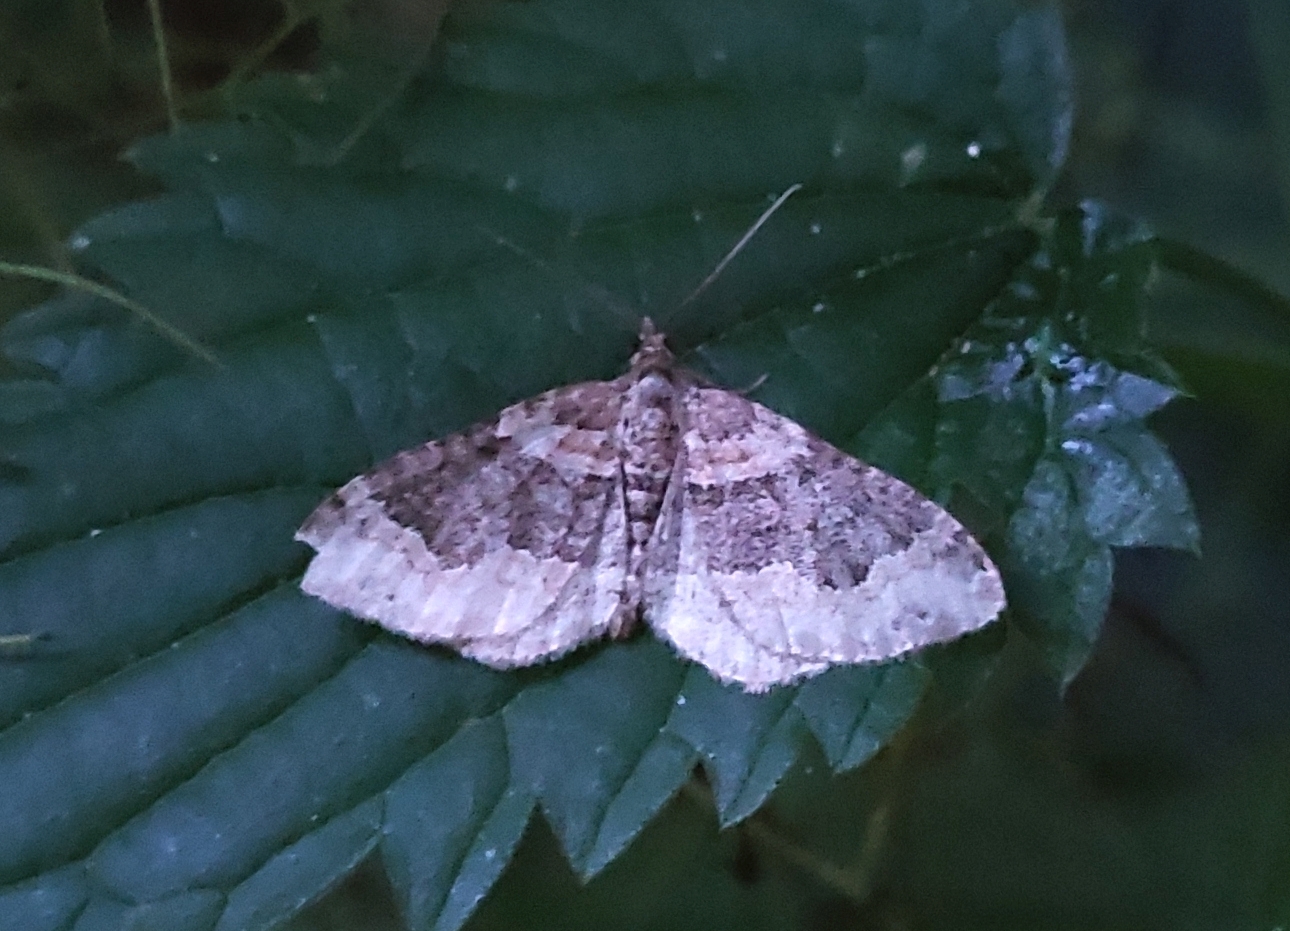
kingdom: Animalia
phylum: Arthropoda
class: Insecta
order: Lepidoptera
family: Geometridae
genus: Xanthorhoe
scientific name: Xanthorhoe ferrugata
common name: Dark-barred twin-spot carpet
